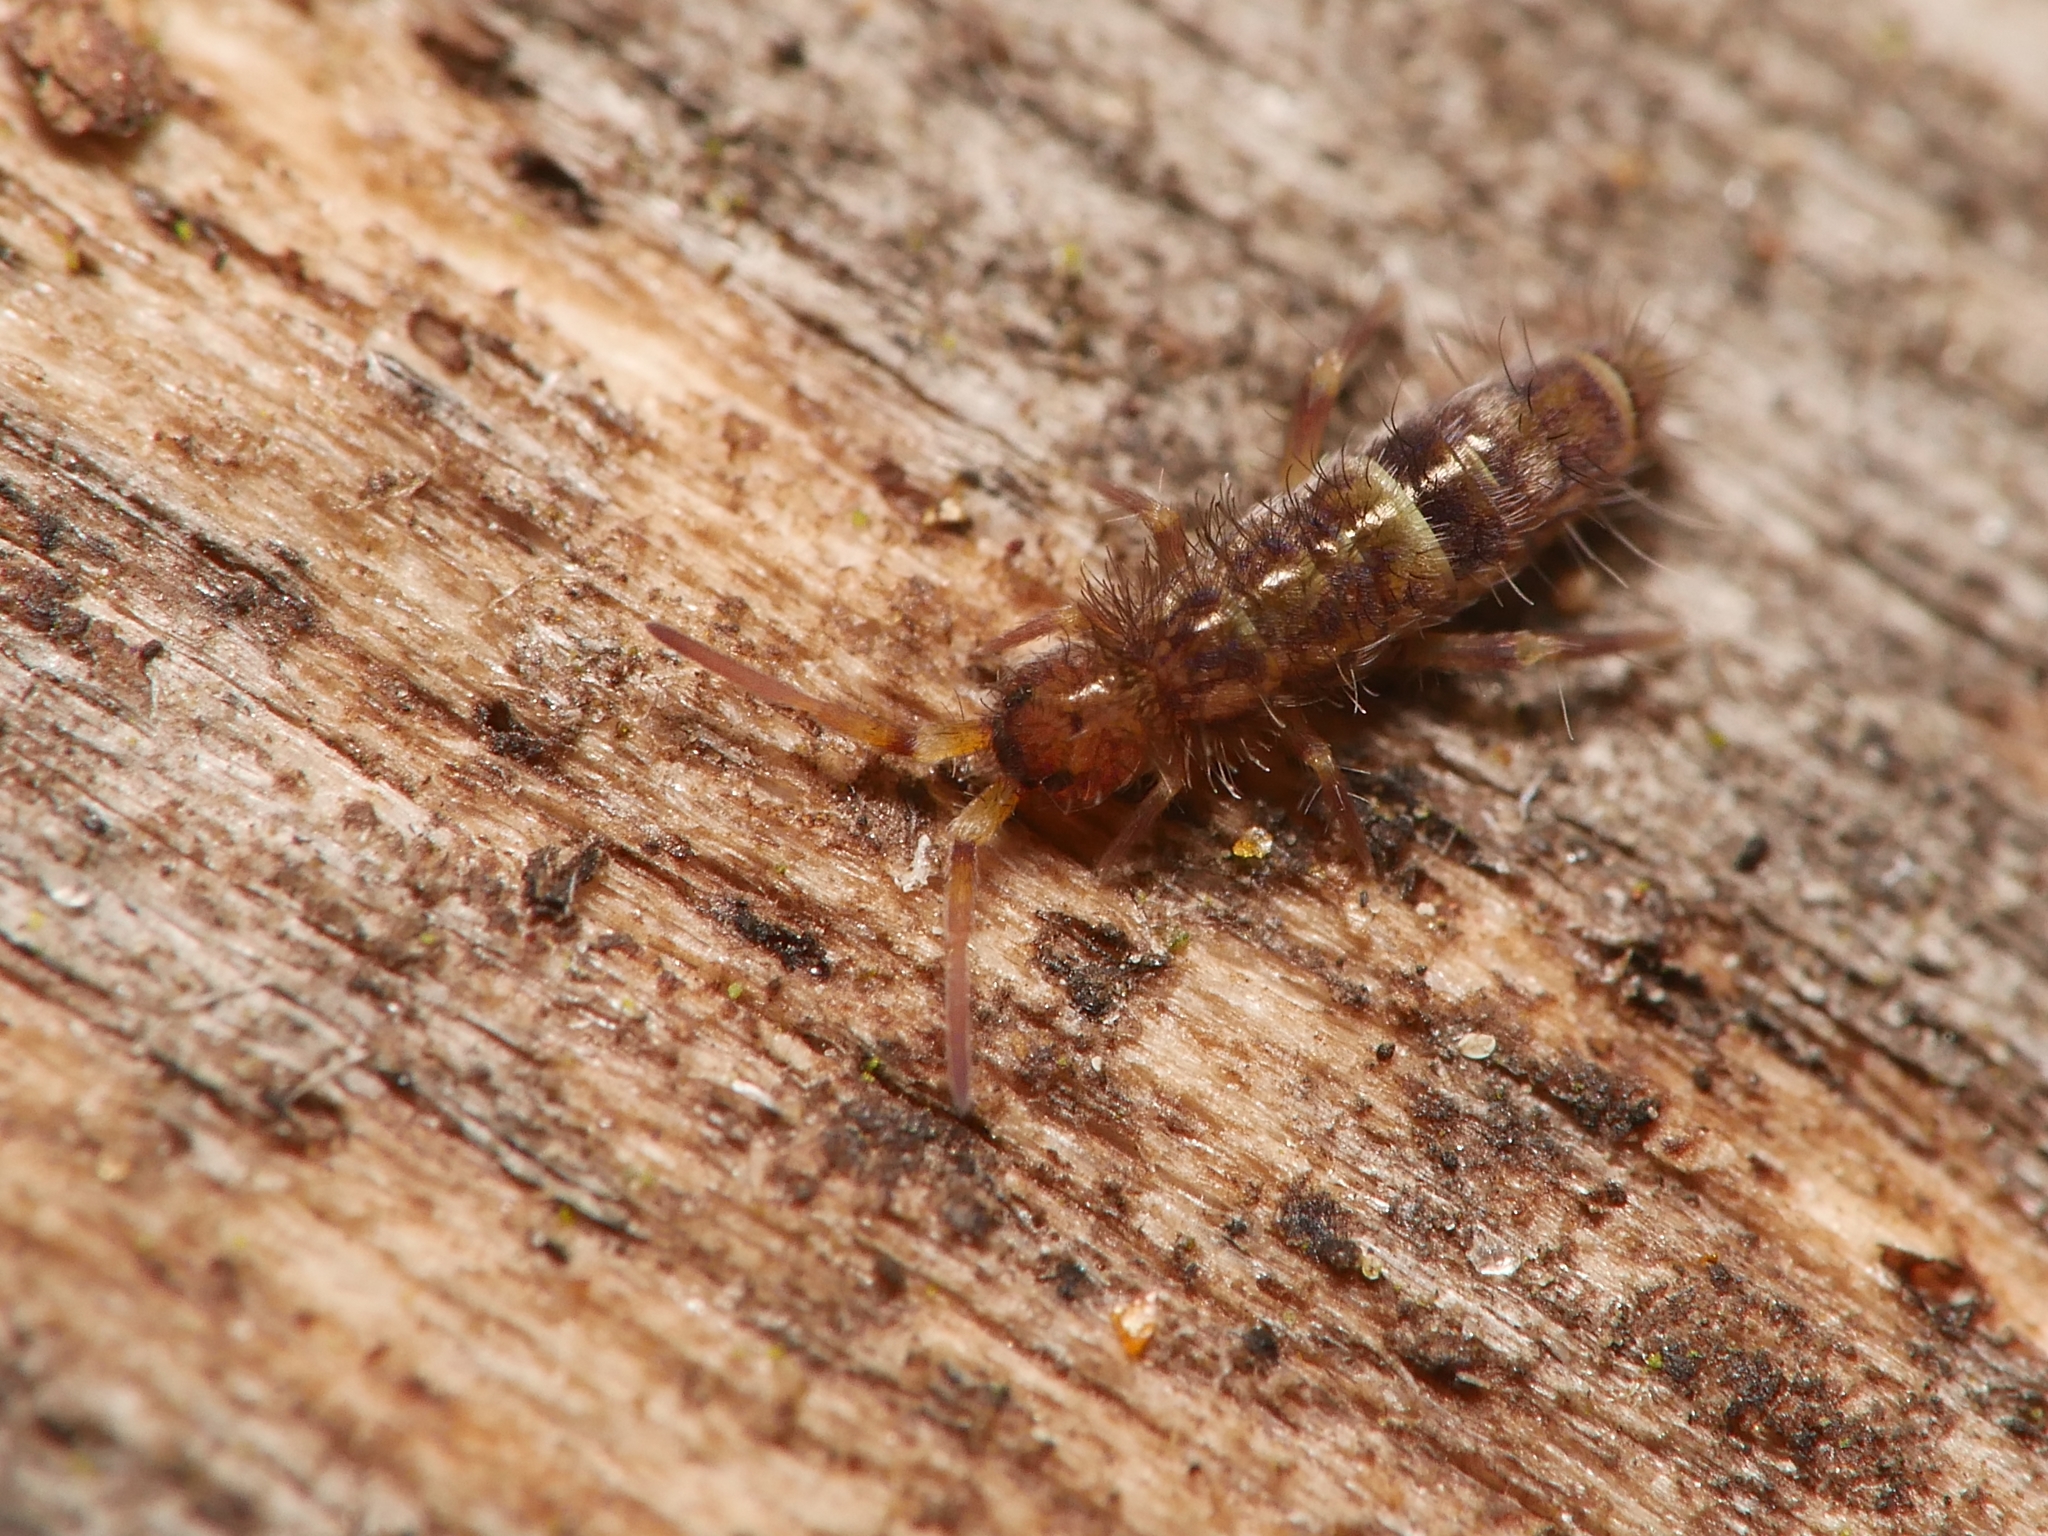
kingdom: Animalia
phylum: Arthropoda
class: Collembola
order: Entomobryomorpha
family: Orchesellidae
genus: Orchesella
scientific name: Orchesella cincta
